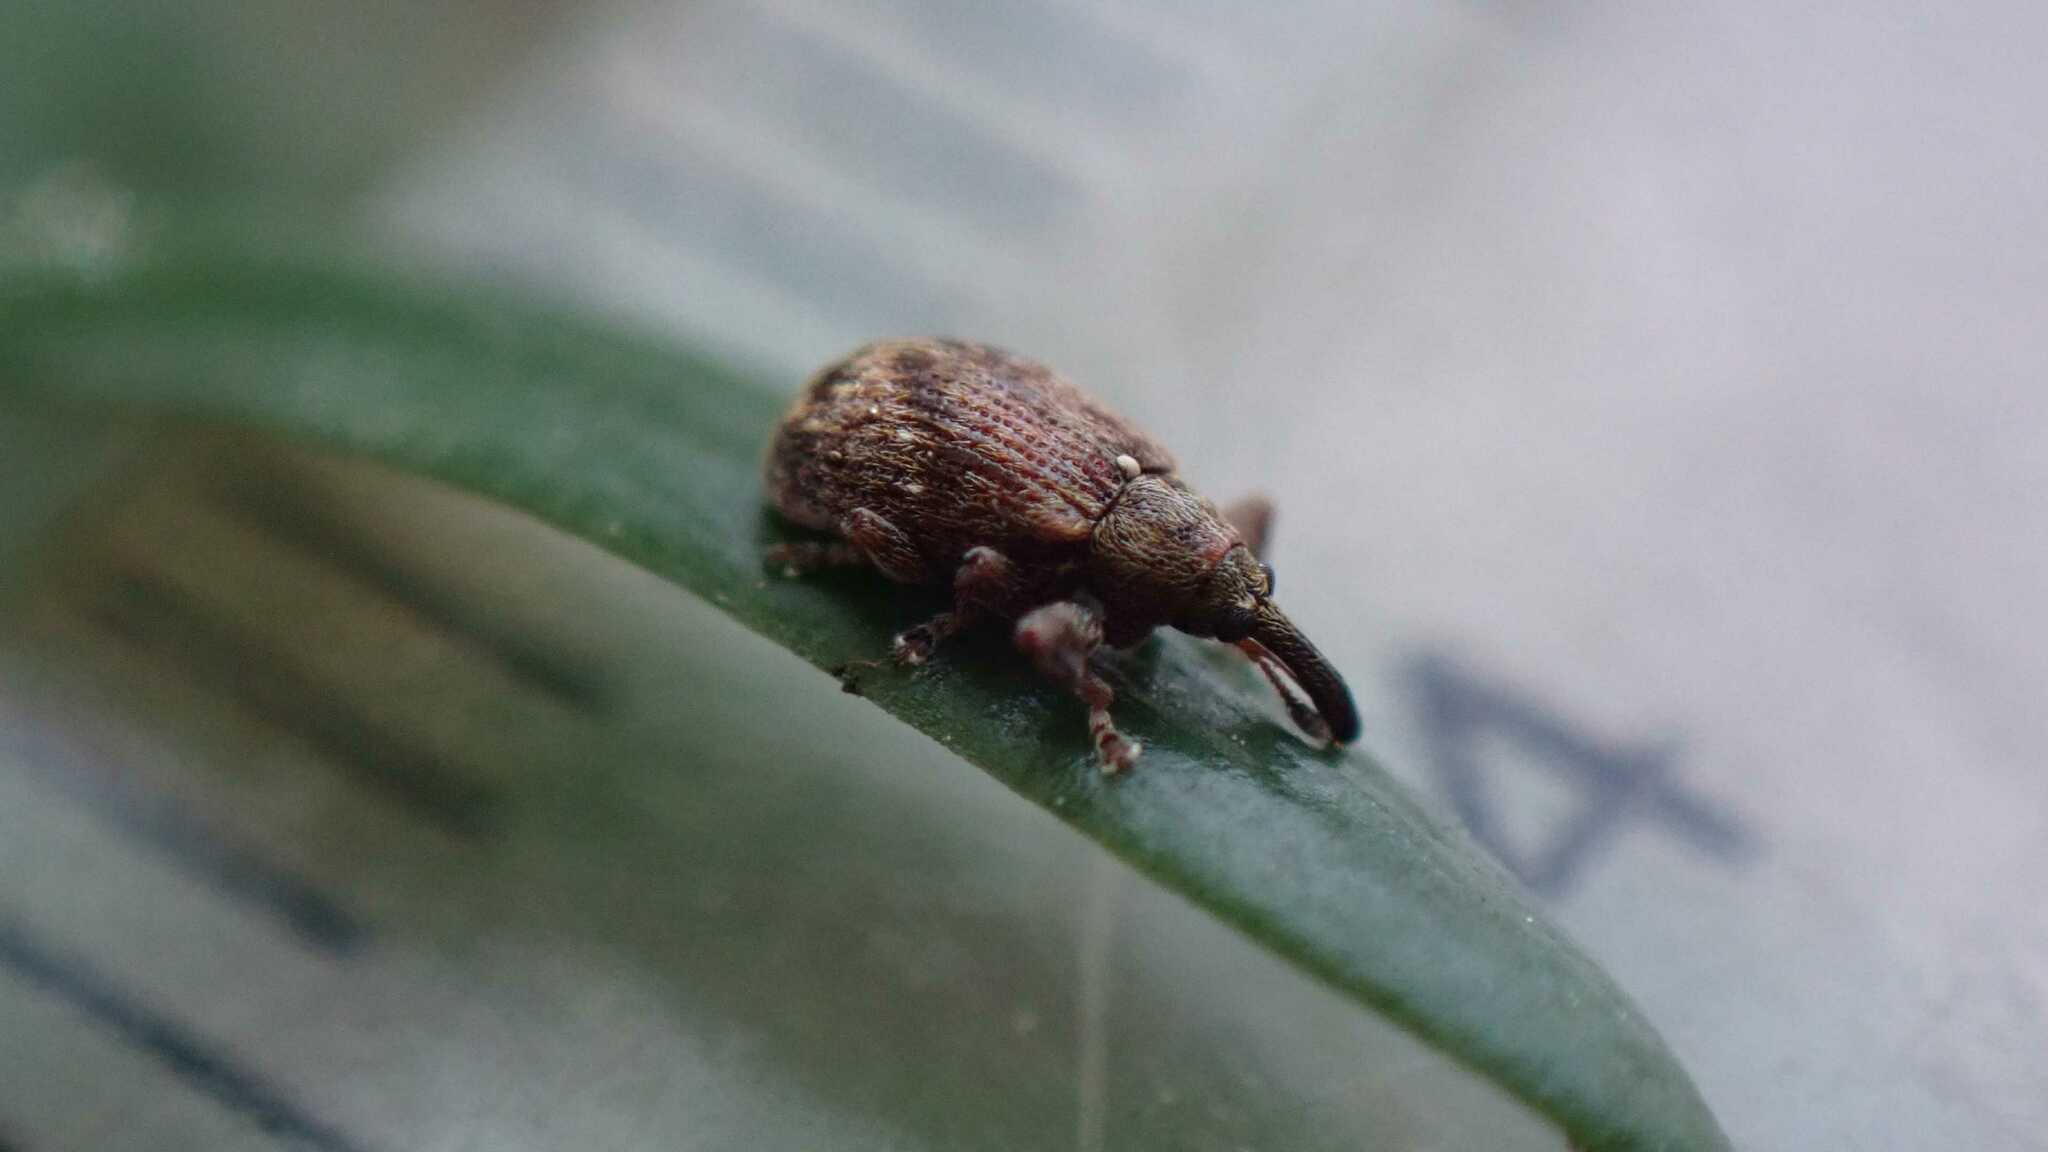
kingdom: Animalia
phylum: Arthropoda
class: Insecta
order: Coleoptera
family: Curculionidae
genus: Anthonomus
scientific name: Anthonomus pomorum
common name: Apple-blossom weevil
